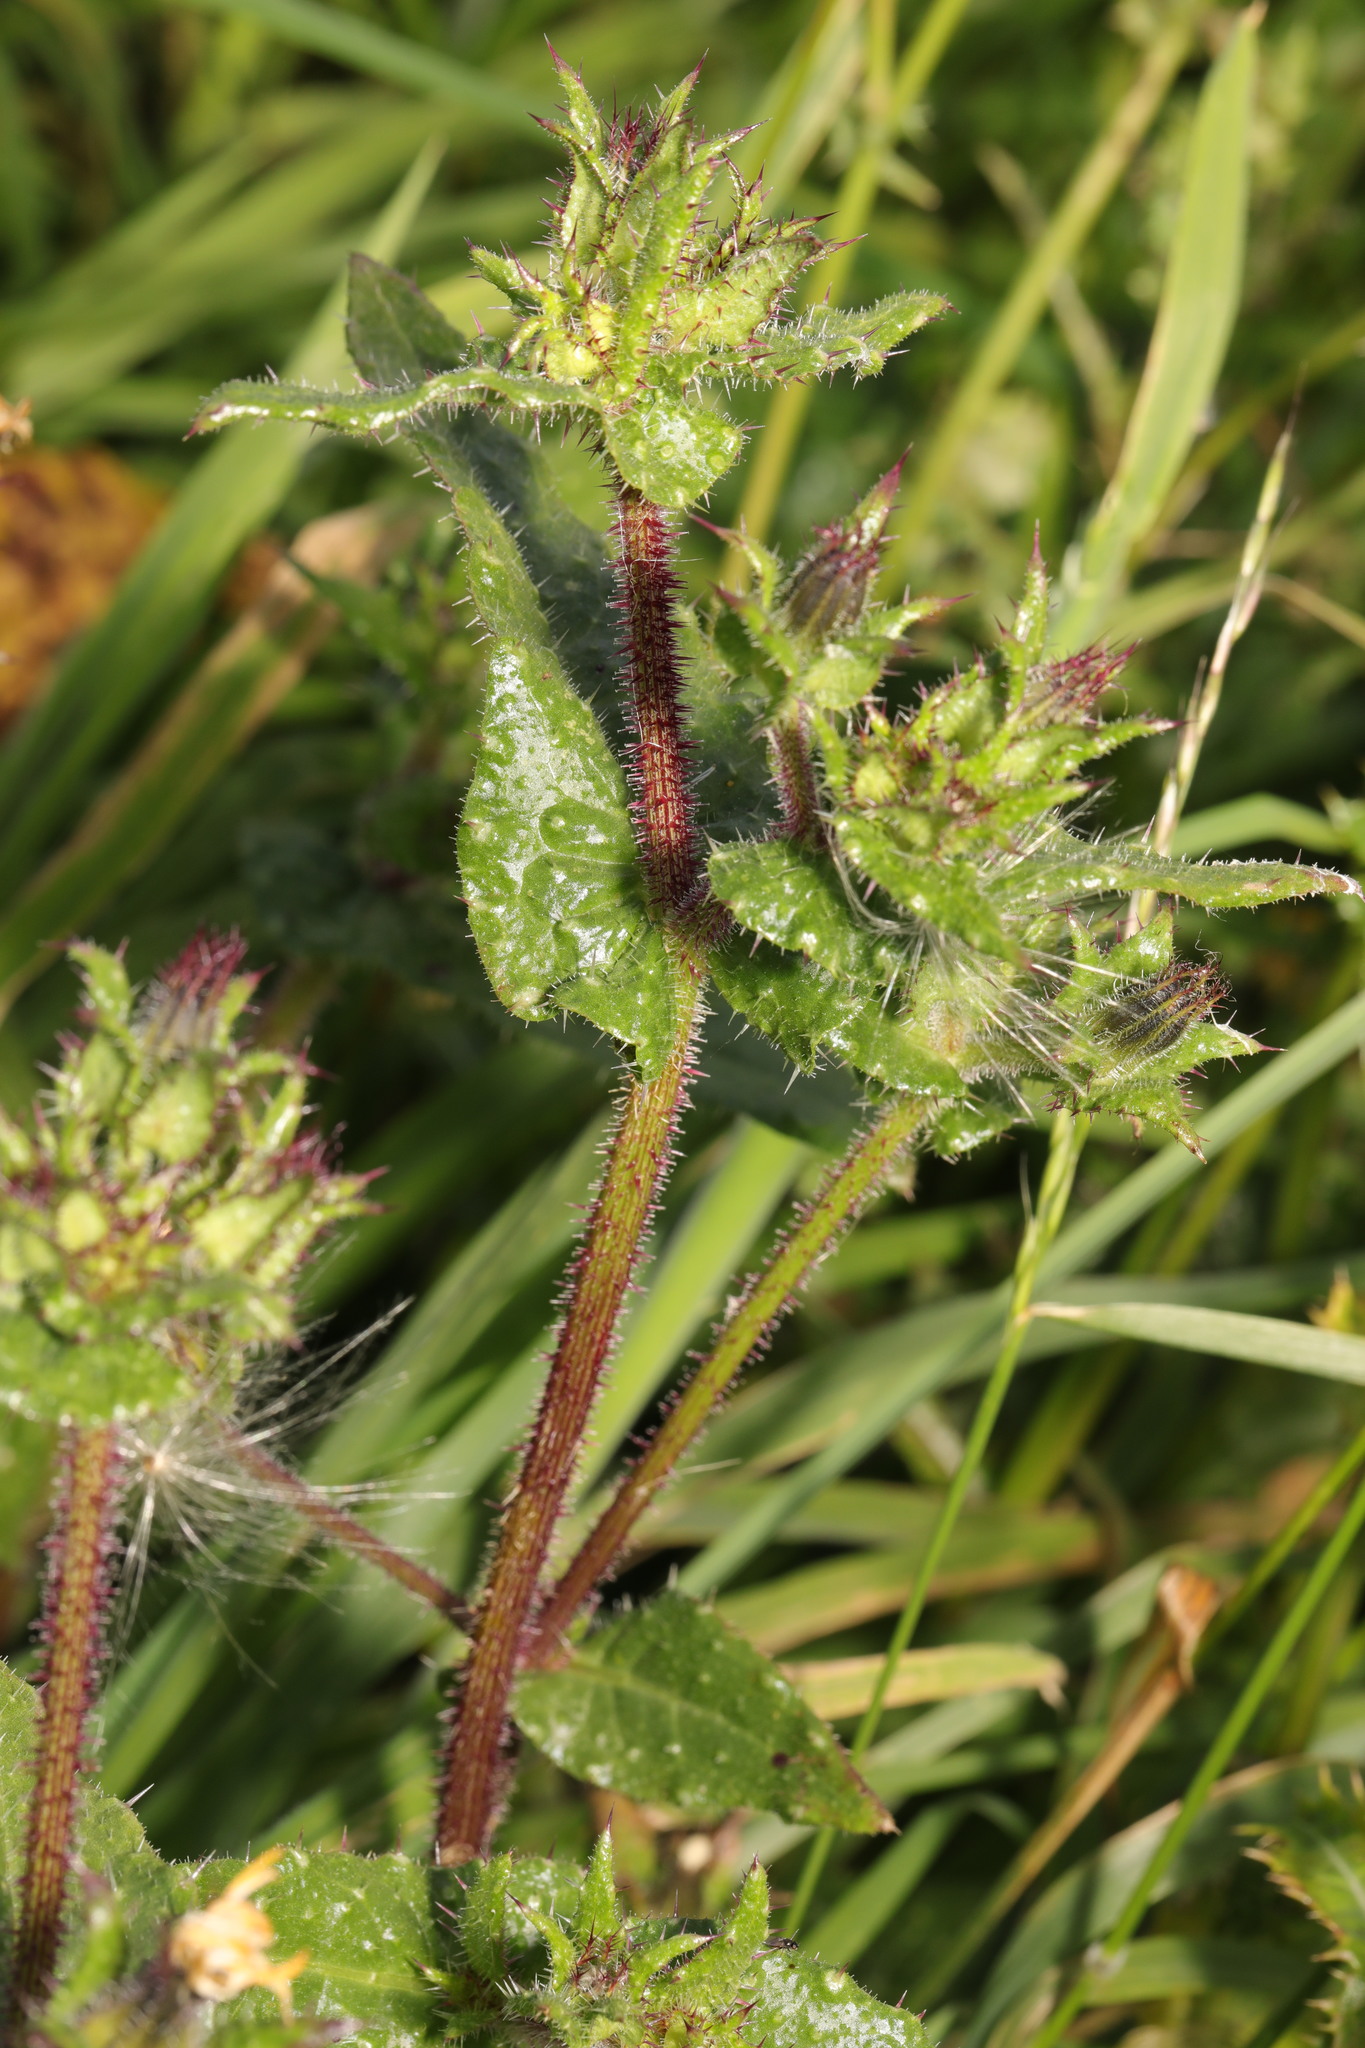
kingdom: Plantae
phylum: Tracheophyta
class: Magnoliopsida
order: Asterales
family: Asteraceae
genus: Helminthotheca
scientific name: Helminthotheca echioides
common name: Ox-tongue
